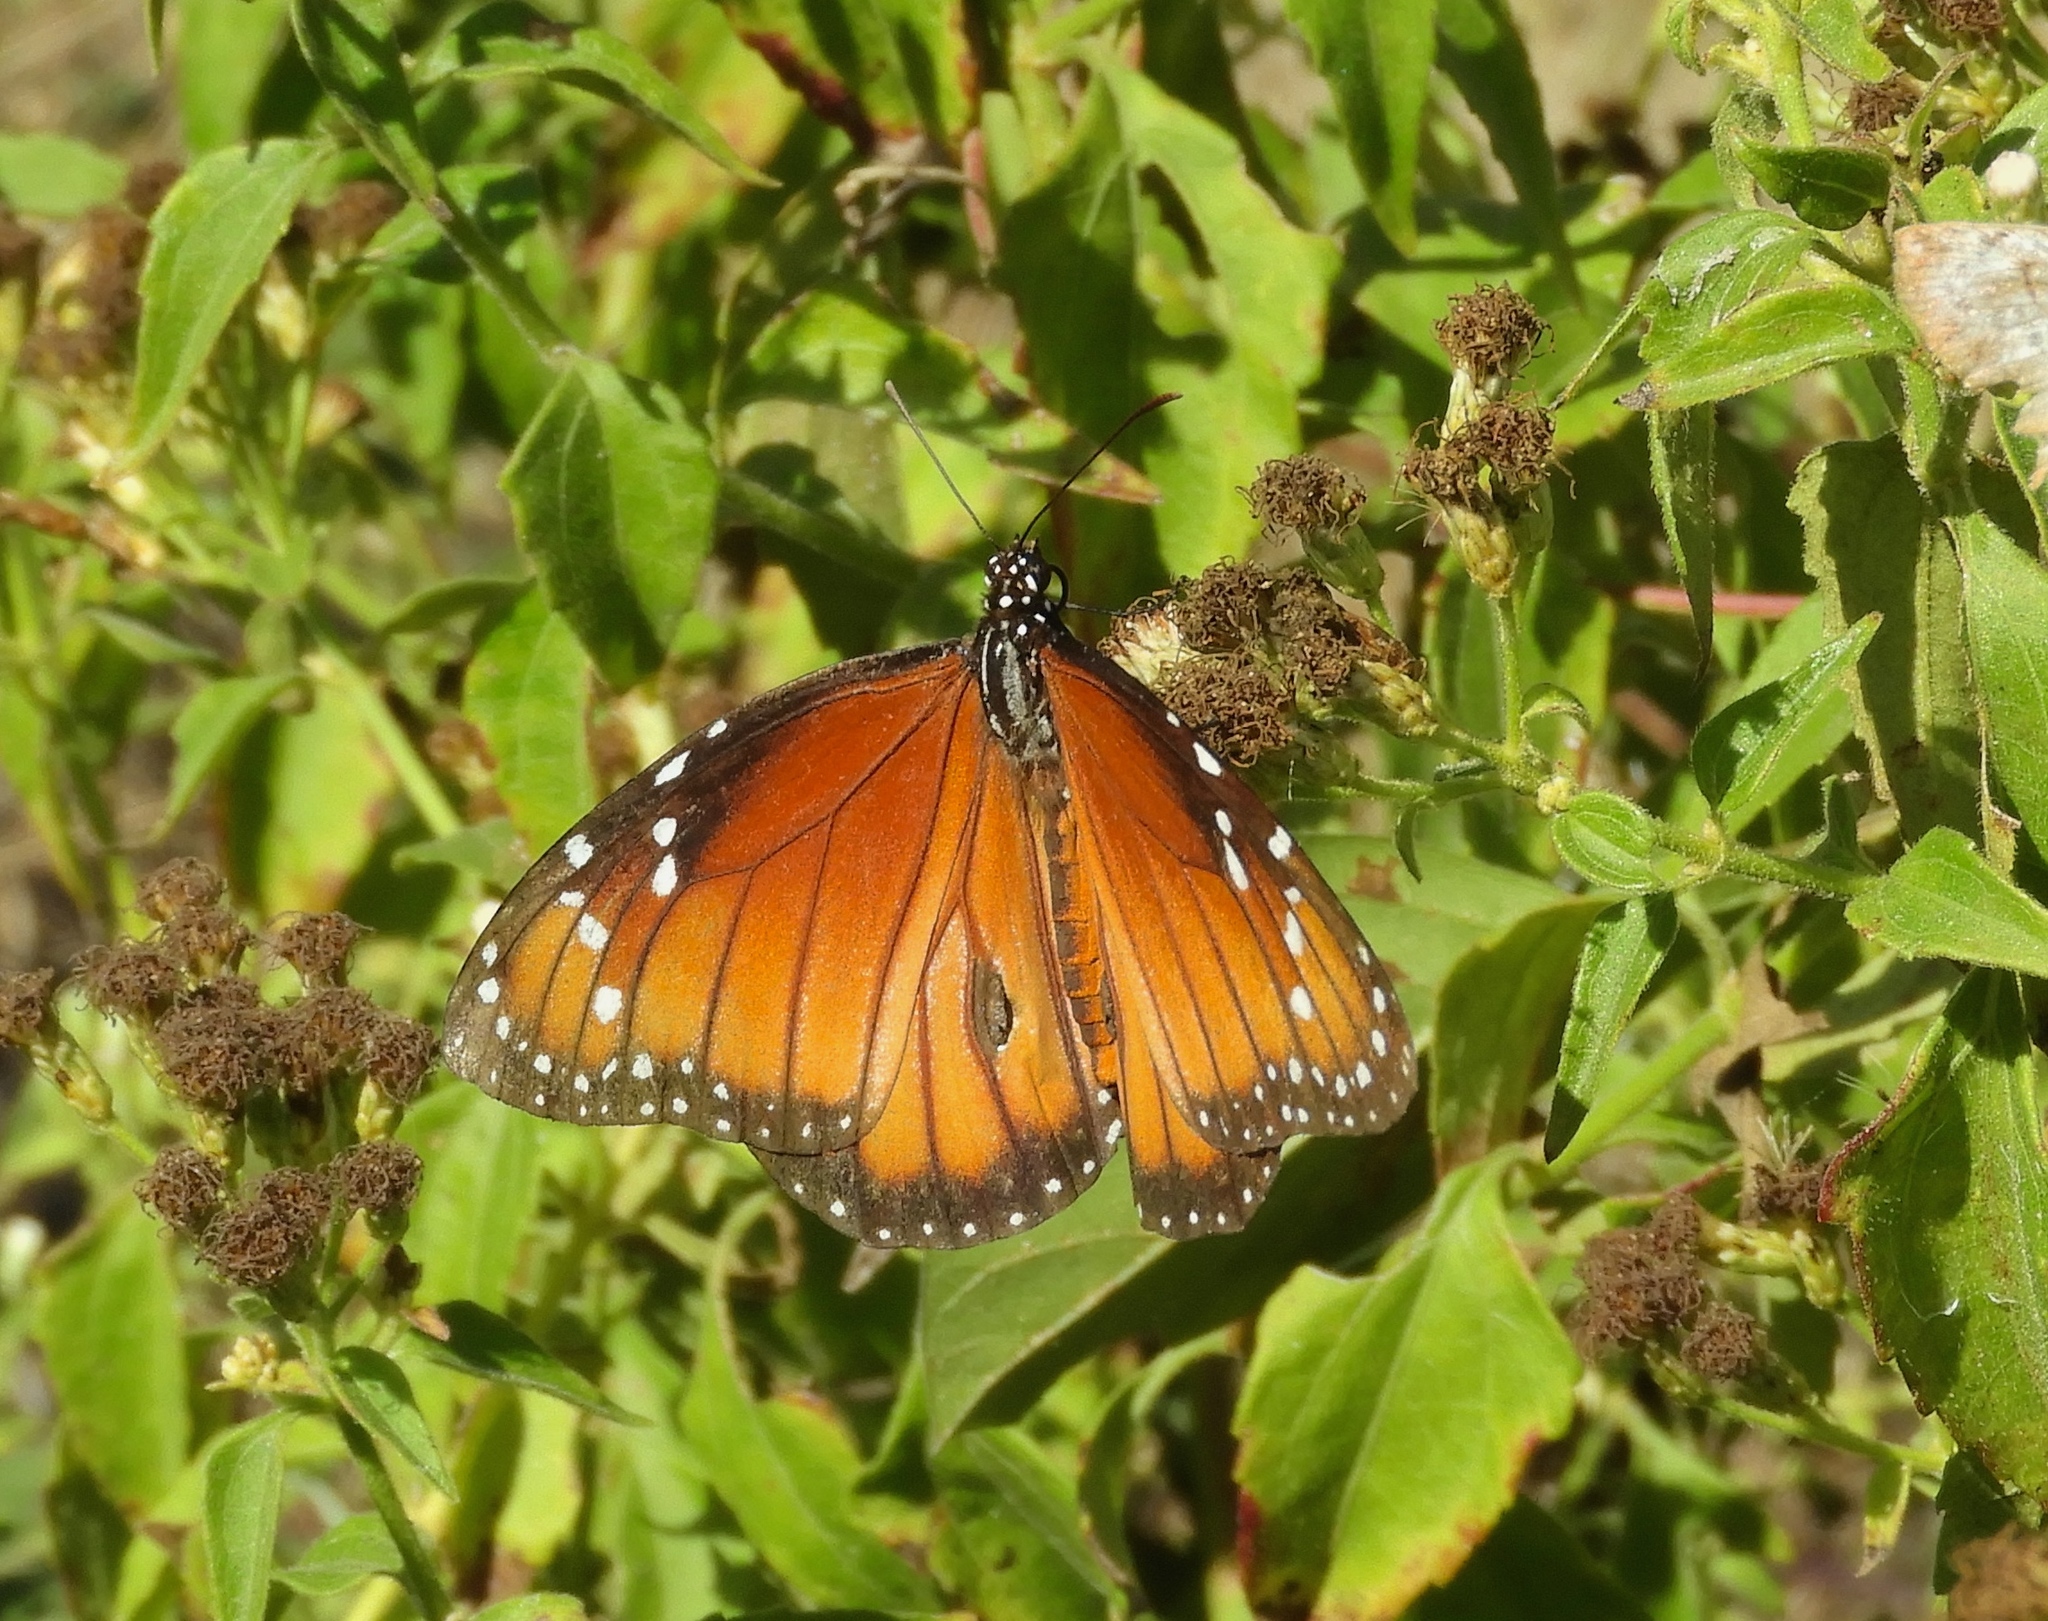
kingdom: Animalia
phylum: Arthropoda
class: Insecta
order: Lepidoptera
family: Nymphalidae
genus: Danaus
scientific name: Danaus eresimus
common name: Soldier
